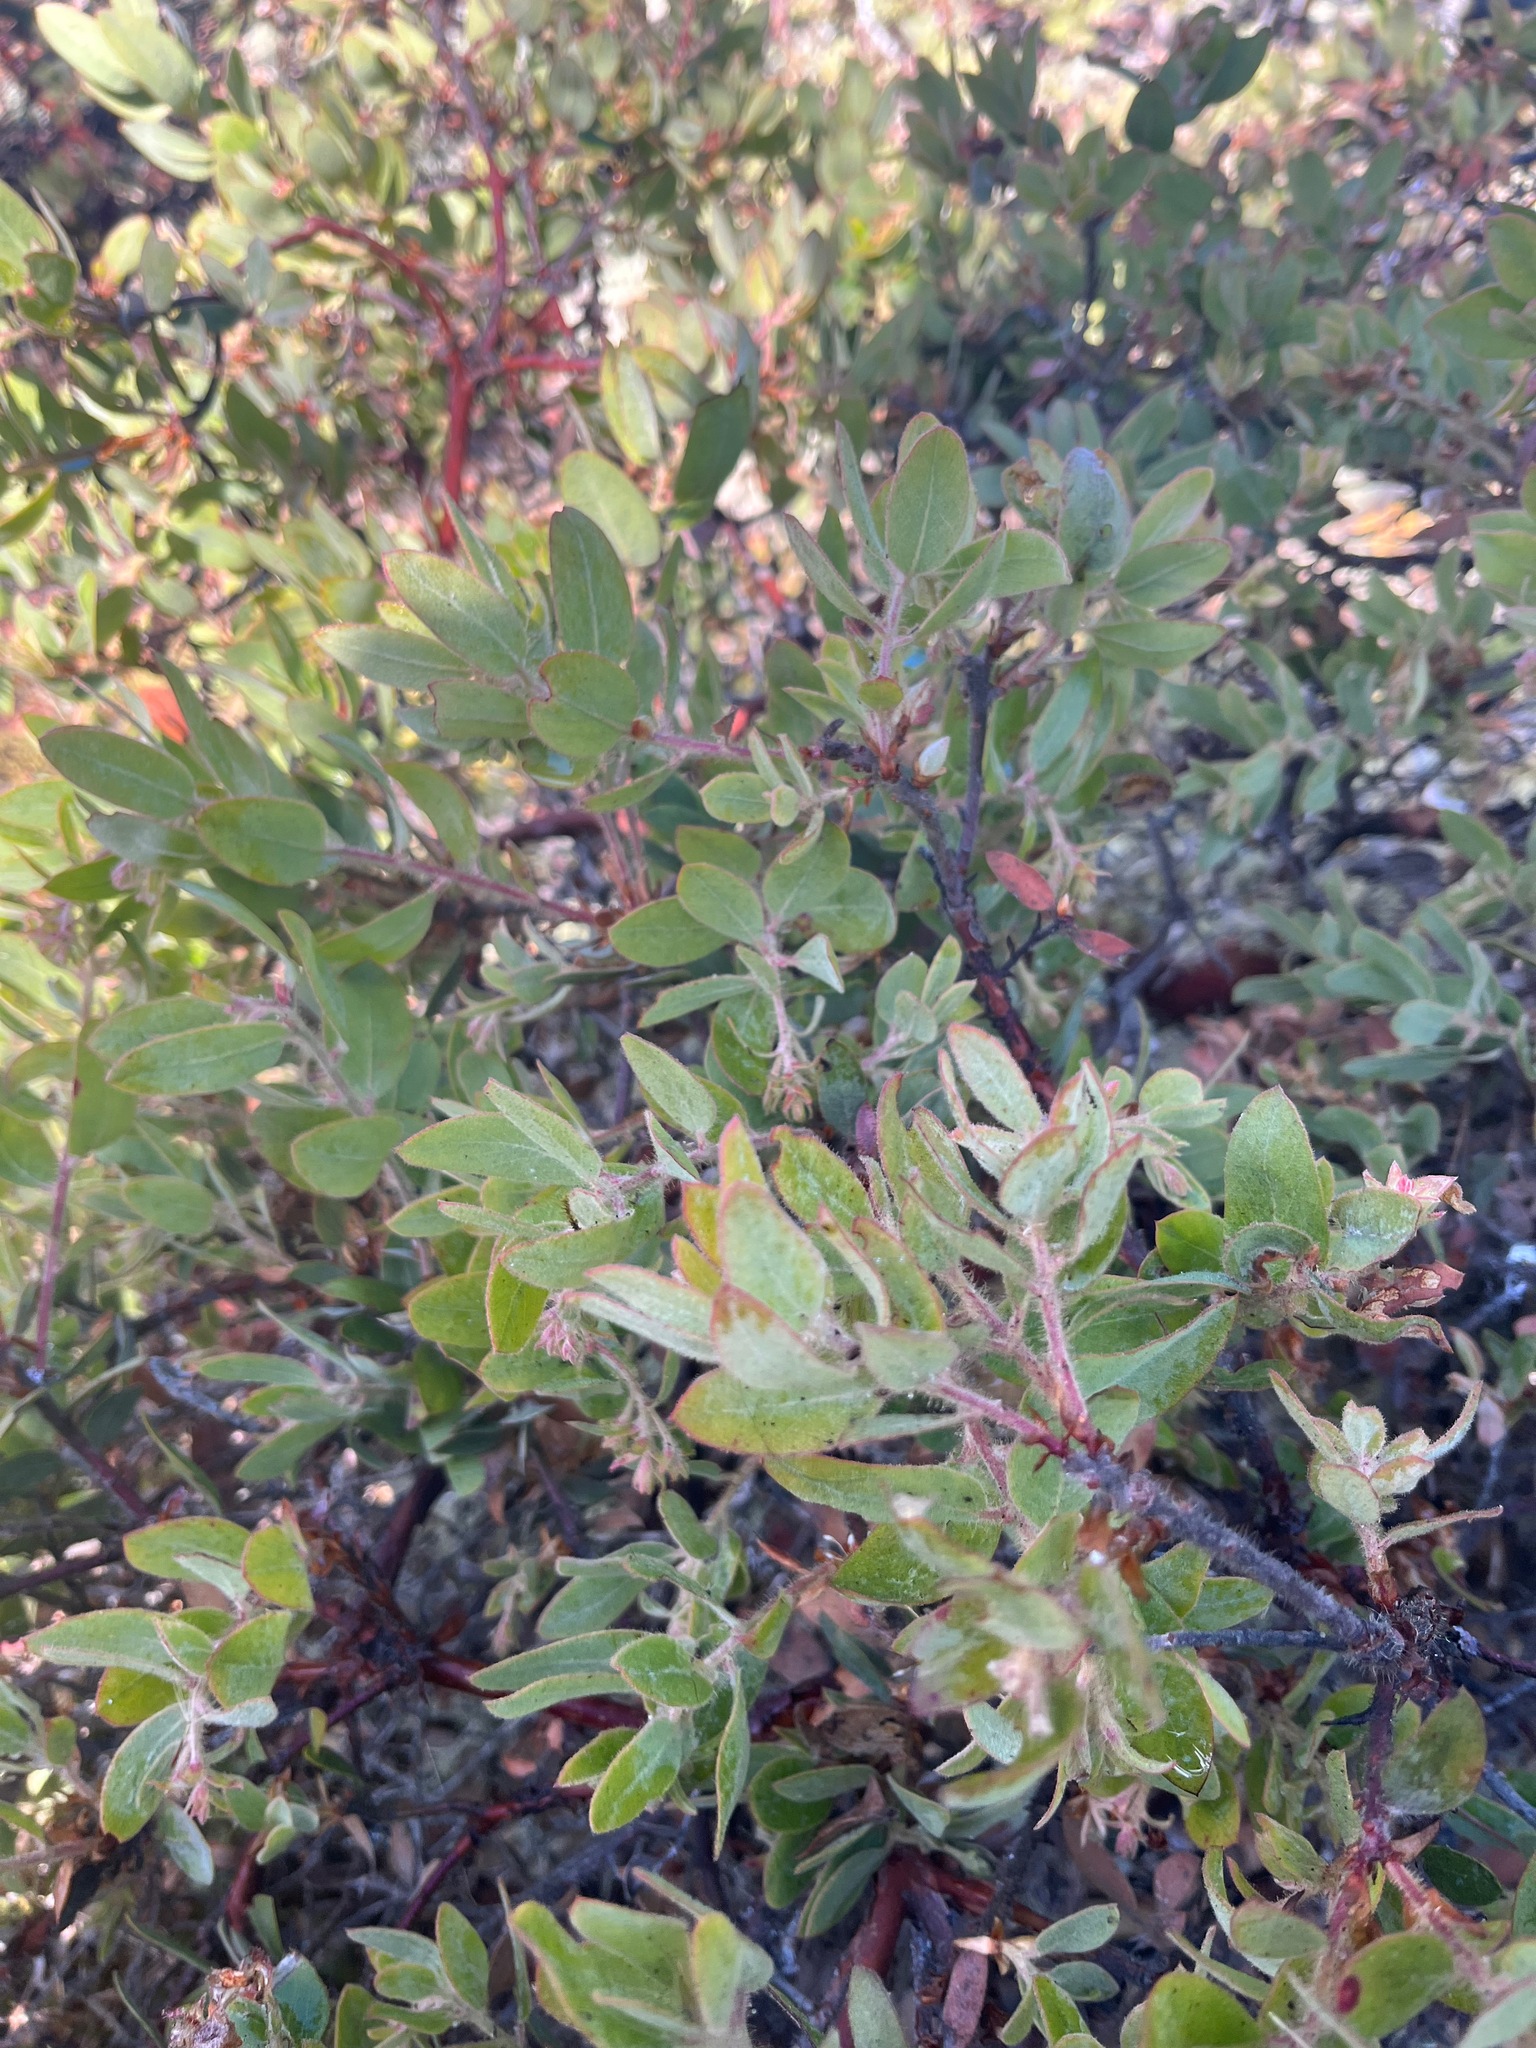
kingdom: Plantae
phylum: Tracheophyta
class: Magnoliopsida
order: Ericales
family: Ericaceae
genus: Arctostaphylos
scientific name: Arctostaphylos columbiana
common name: Bristly bearberry
